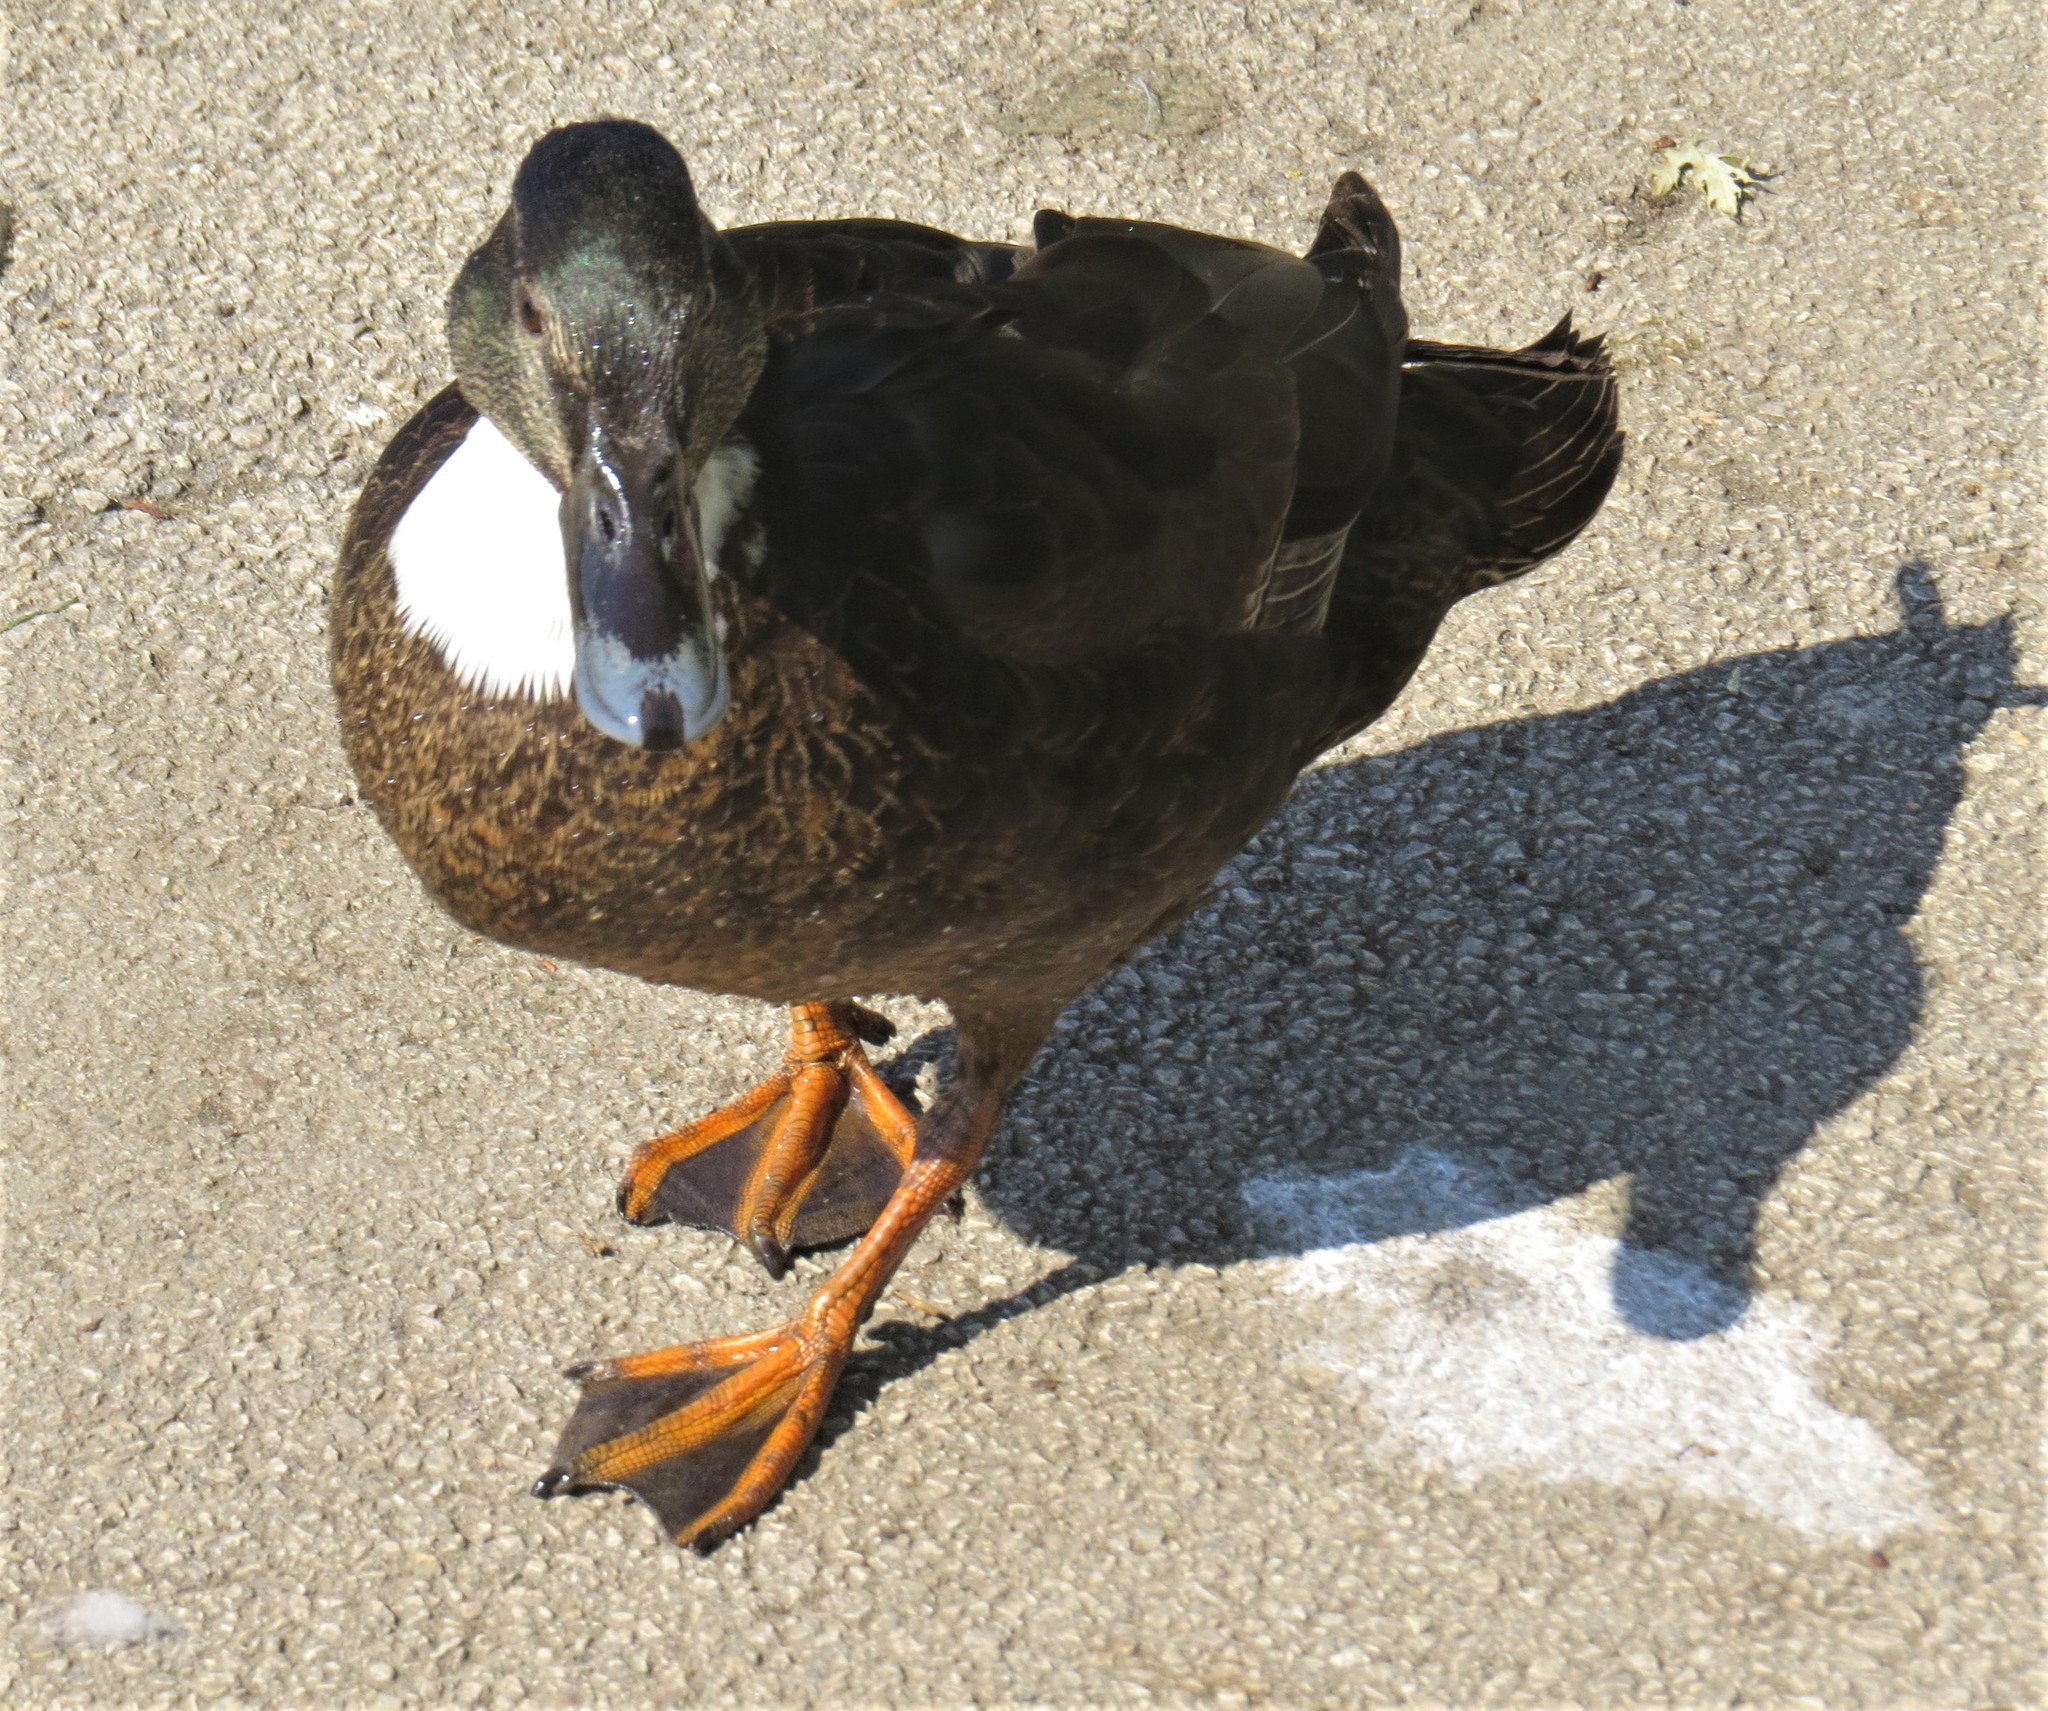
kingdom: Animalia
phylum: Chordata
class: Aves
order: Anseriformes
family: Anatidae
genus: Anas
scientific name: Anas platyrhynchos
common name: Mallard
